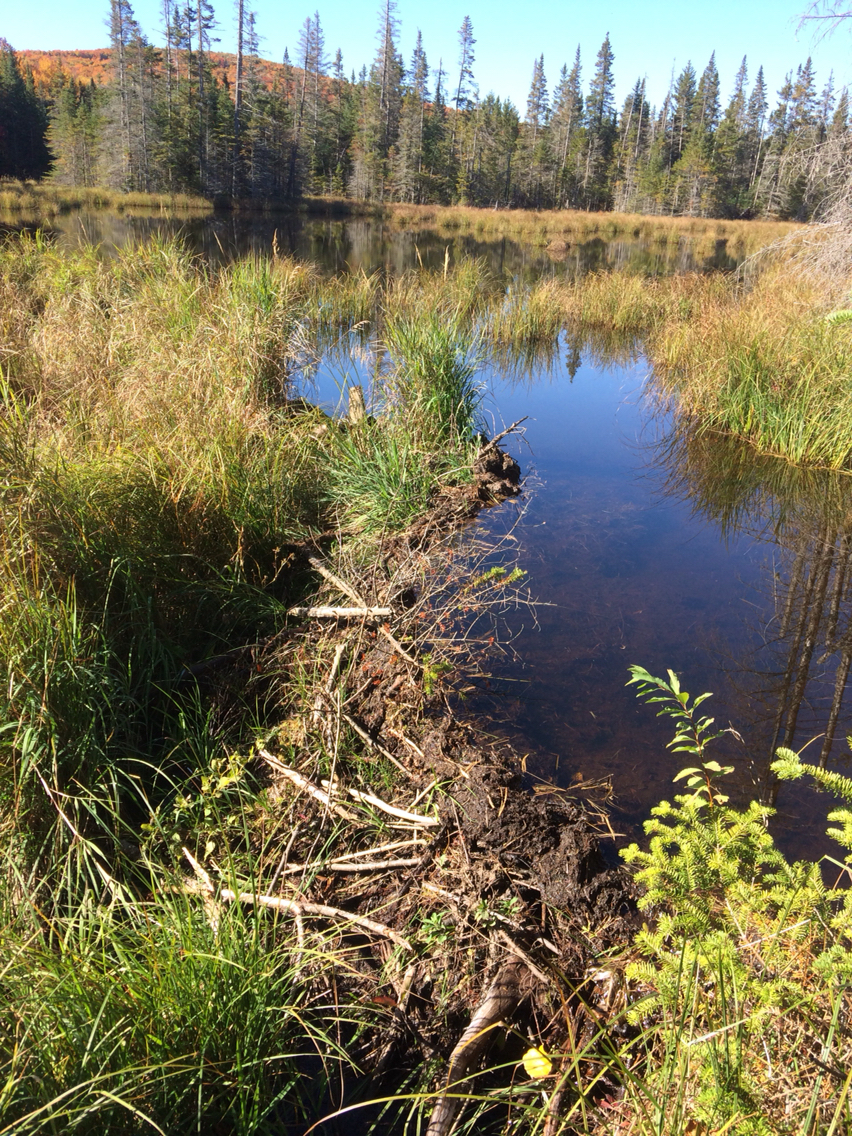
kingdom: Animalia
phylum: Chordata
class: Mammalia
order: Rodentia
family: Castoridae
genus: Castor
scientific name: Castor canadensis
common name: American beaver
